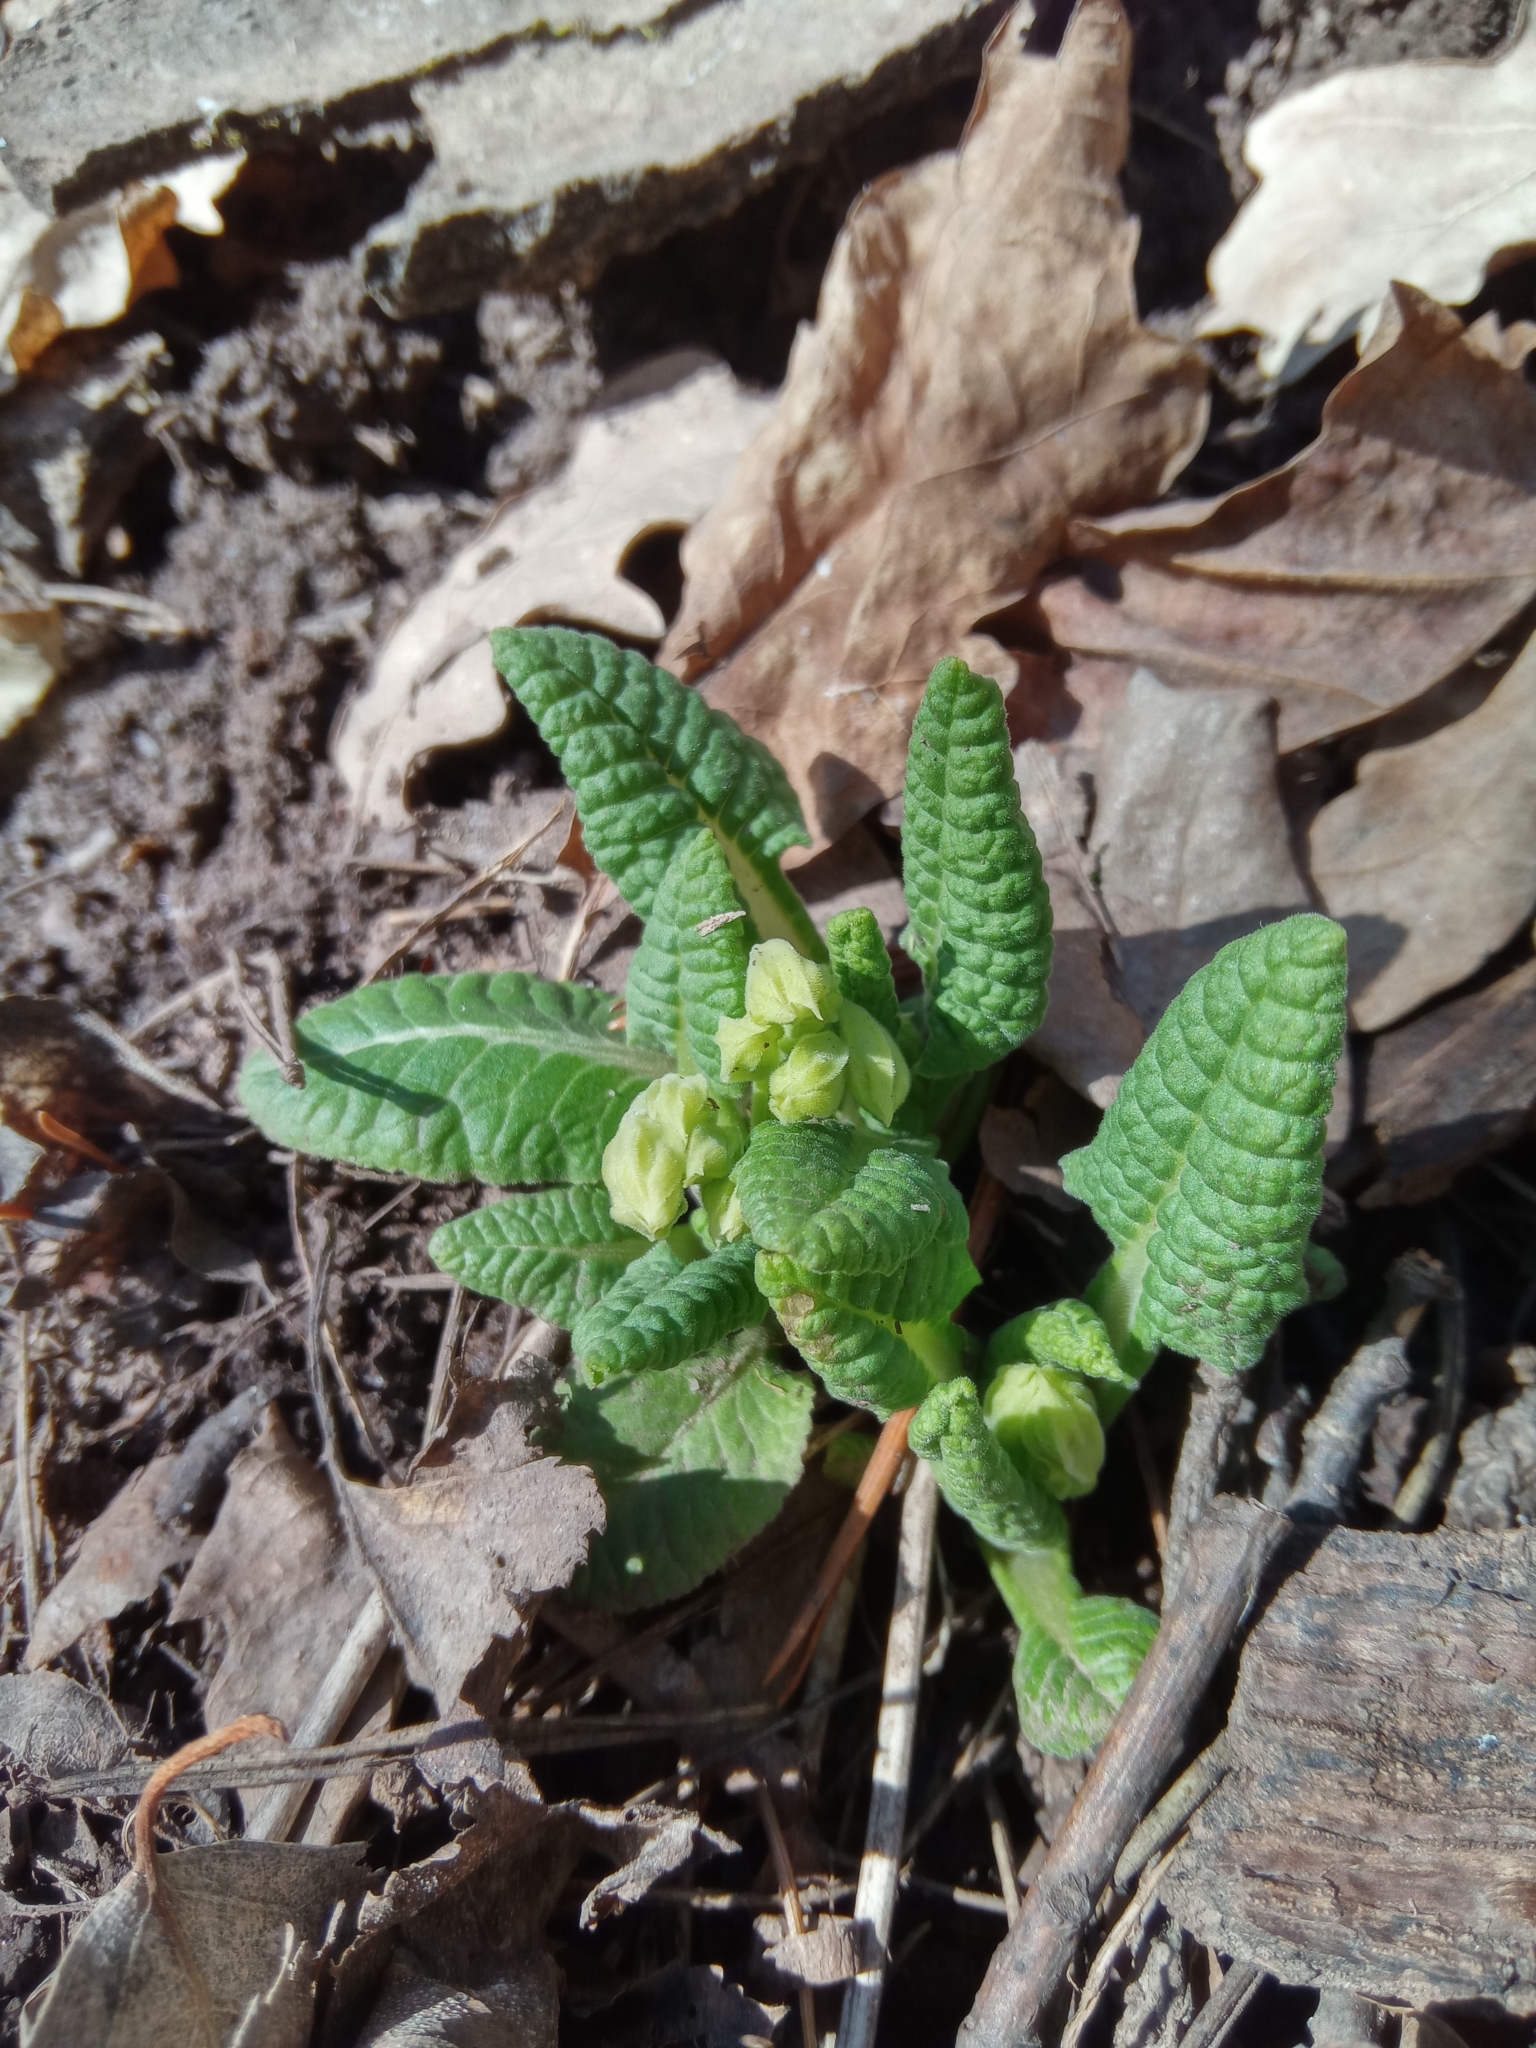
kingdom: Plantae
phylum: Tracheophyta
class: Magnoliopsida
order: Ericales
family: Primulaceae
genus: Primula
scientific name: Primula veris
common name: Cowslip
